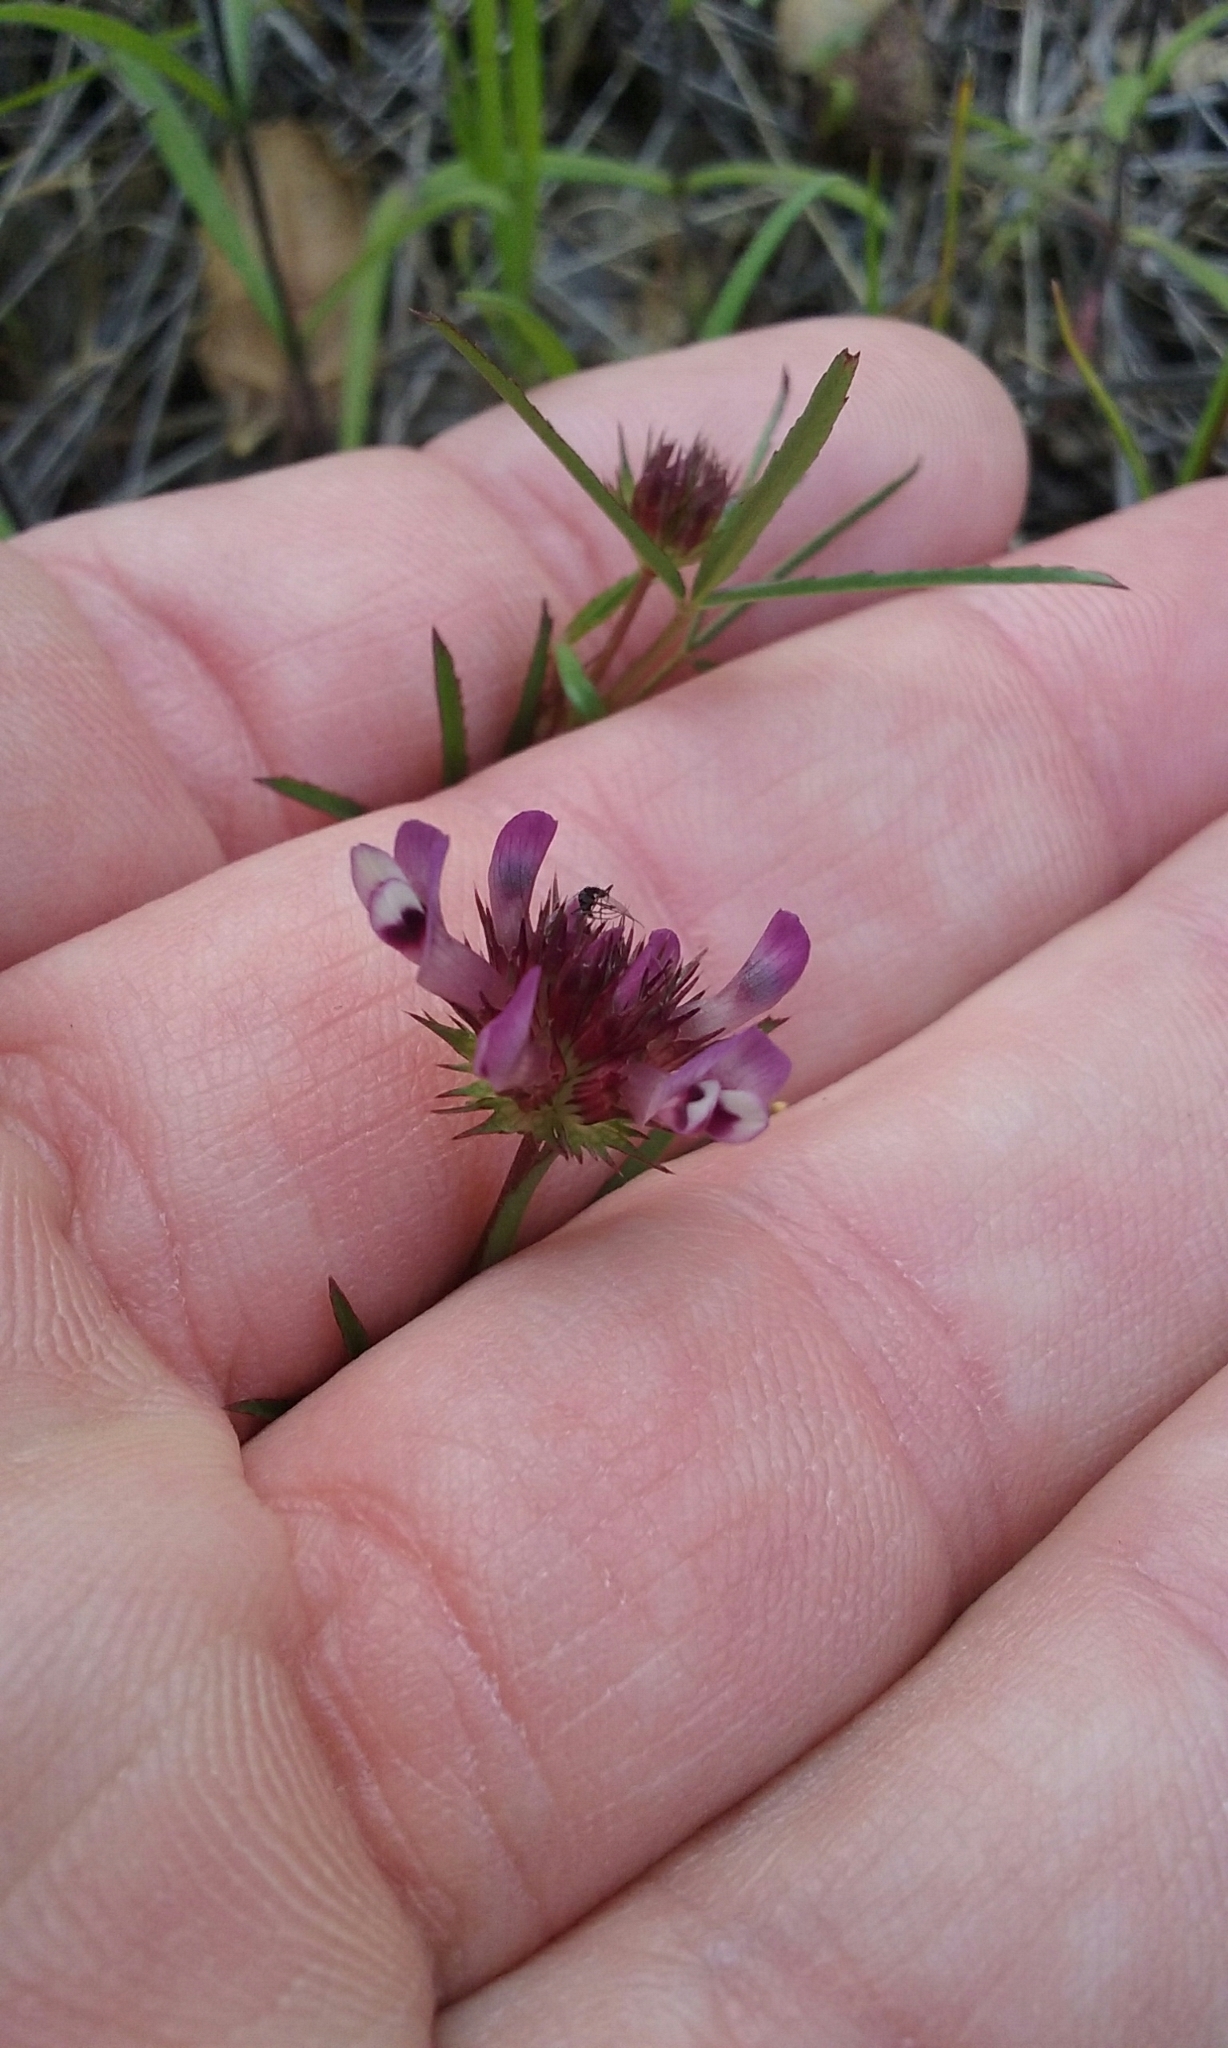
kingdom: Plantae
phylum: Tracheophyta
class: Magnoliopsida
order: Fabales
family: Fabaceae
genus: Trifolium
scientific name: Trifolium willdenovii
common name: Tomcat clover
